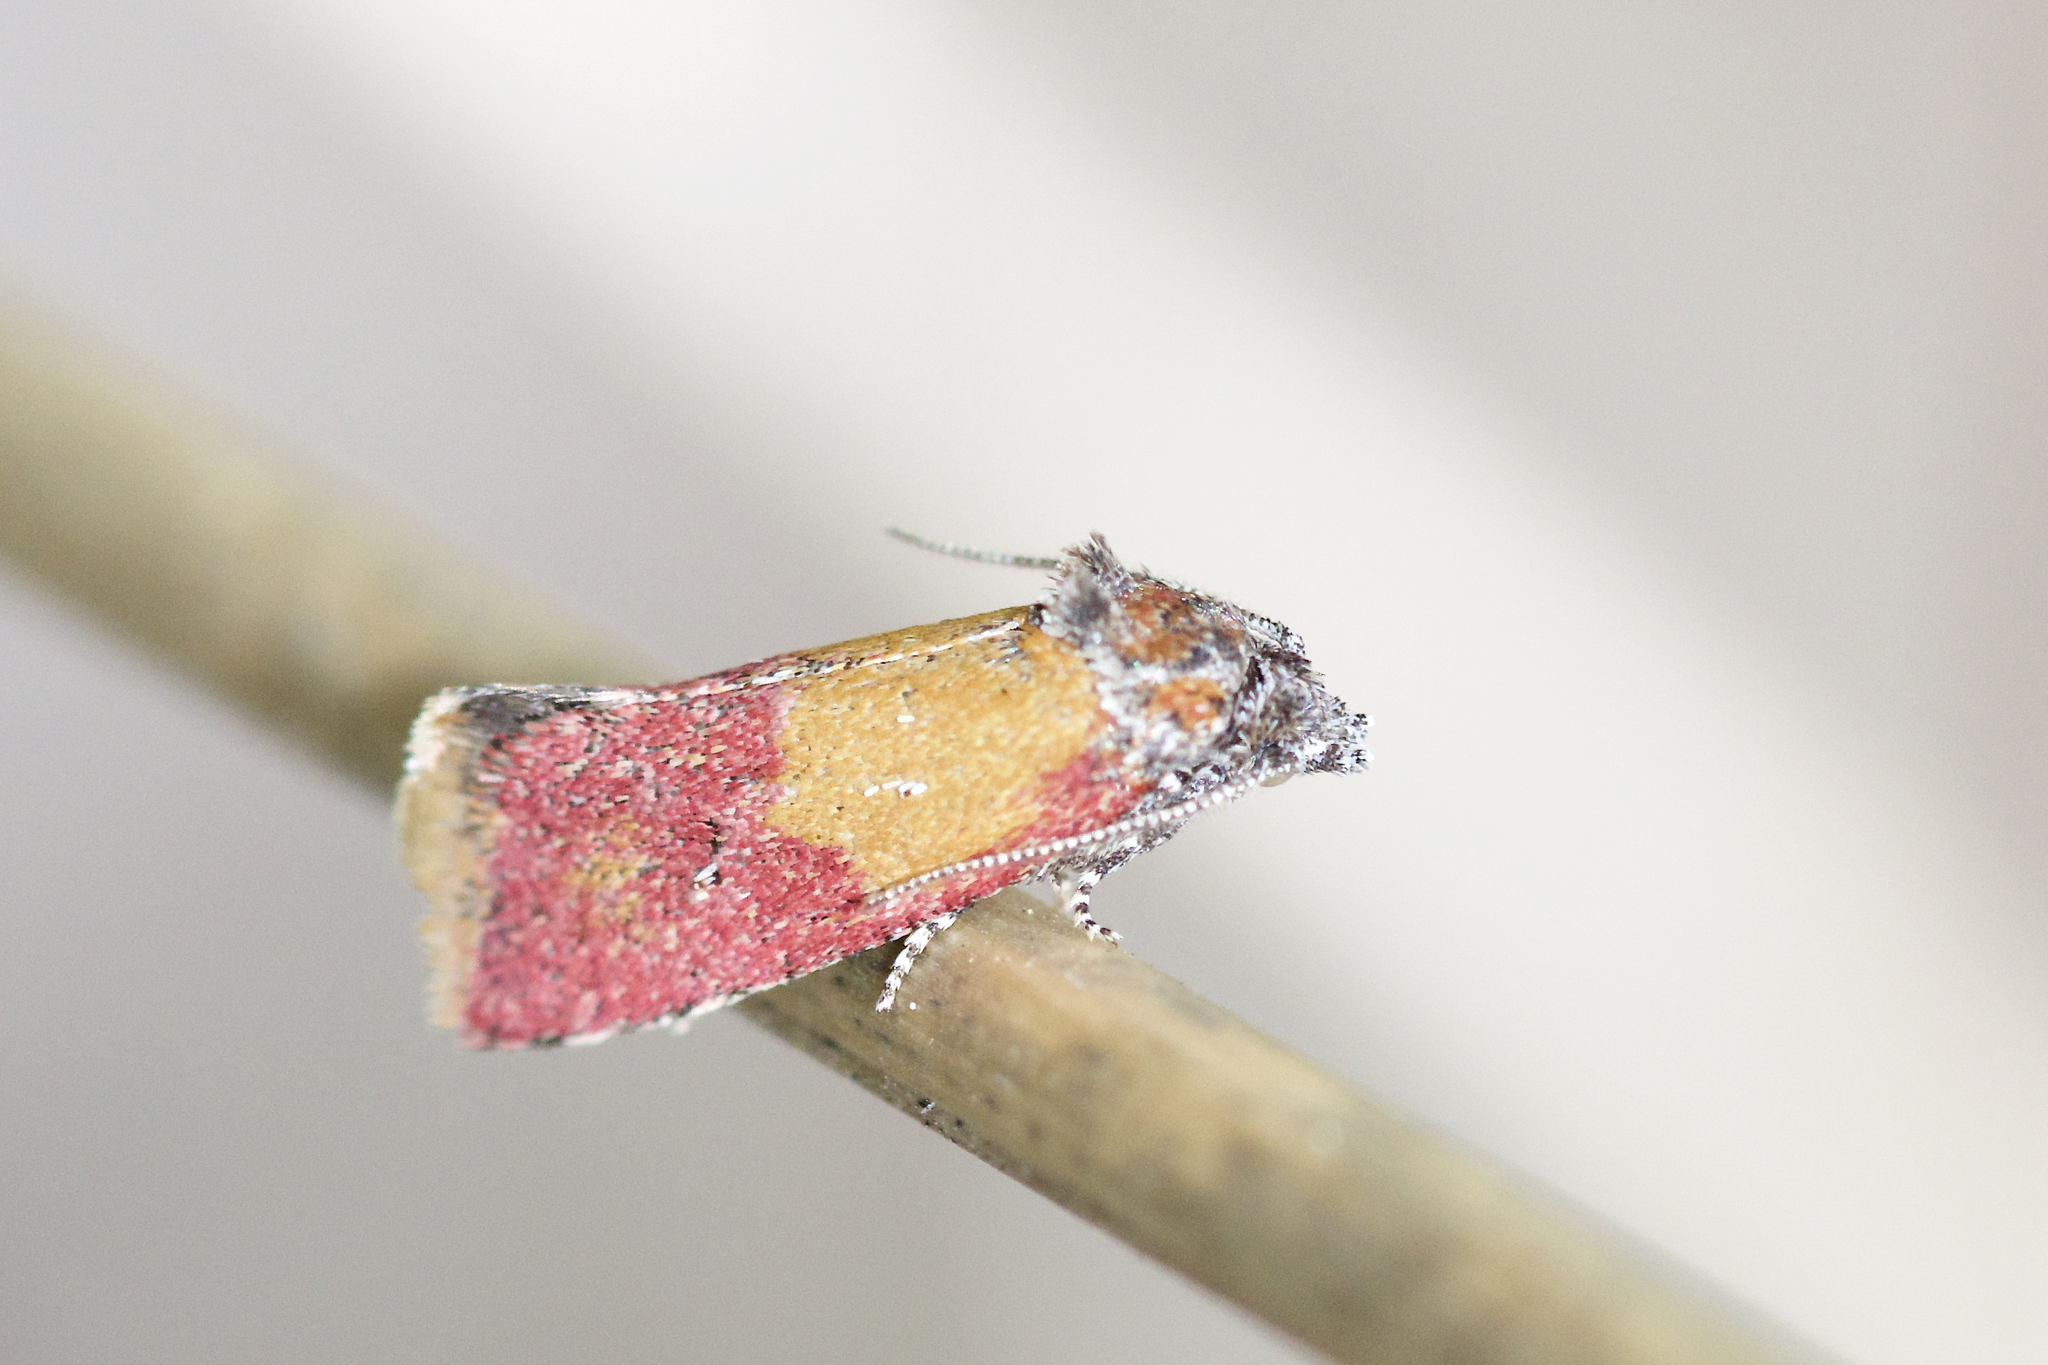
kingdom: Animalia
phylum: Arthropoda
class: Insecta
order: Lepidoptera
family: Tortricidae
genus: Conchylis
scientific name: Conchylis oenotherana
